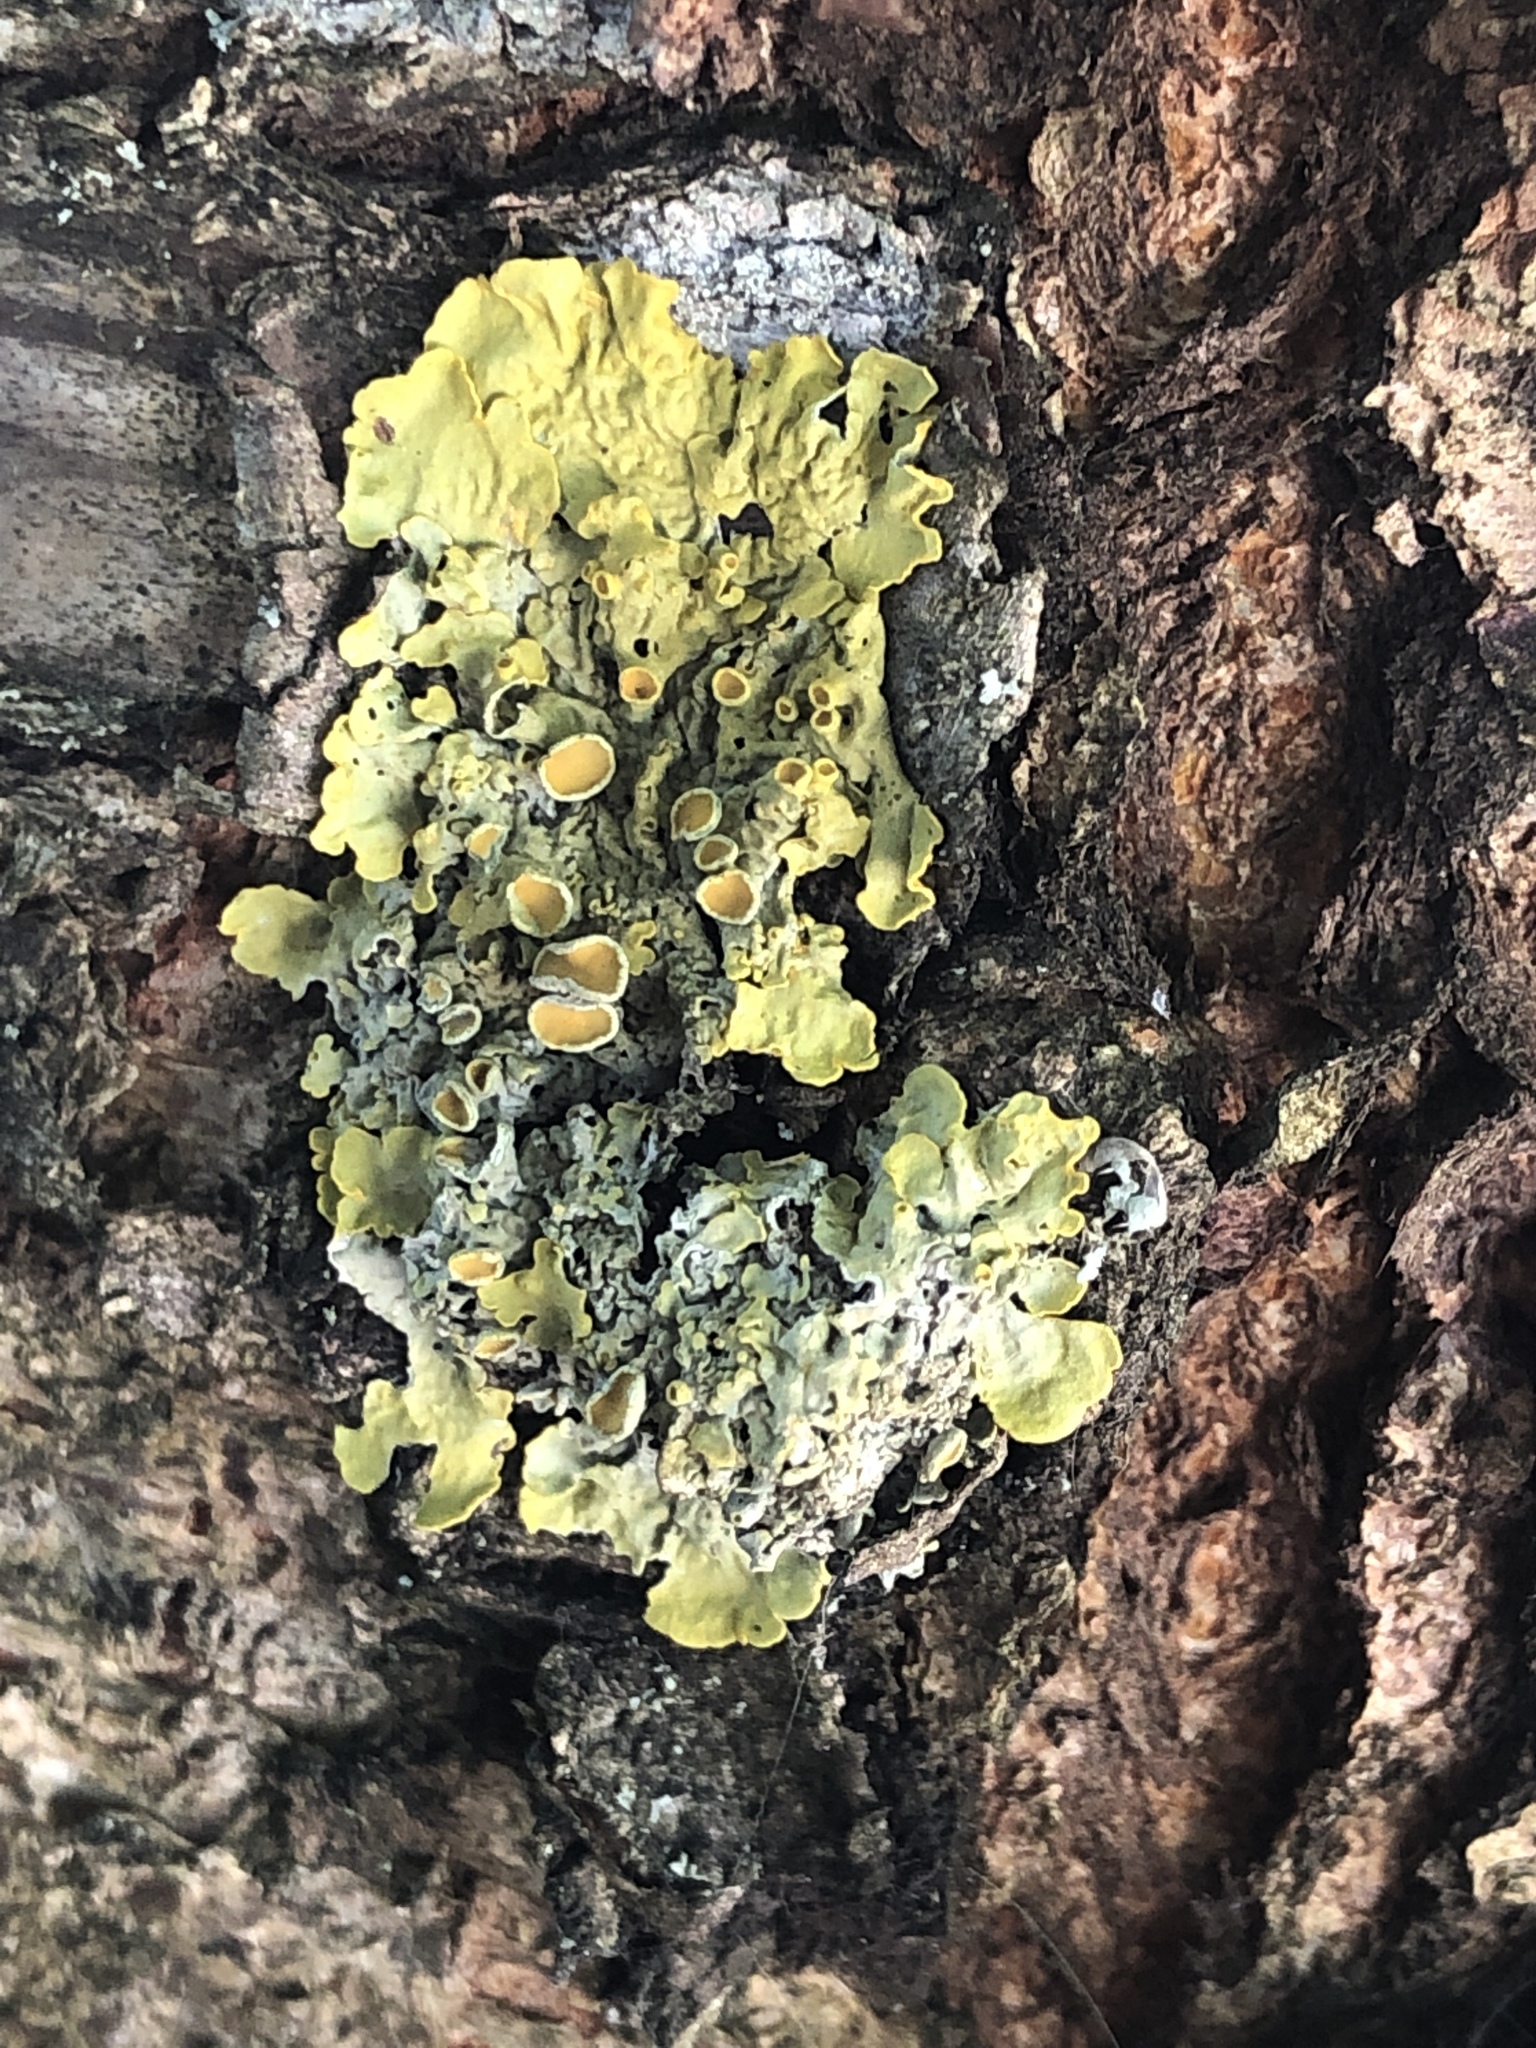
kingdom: Fungi
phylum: Ascomycota
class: Lecanoromycetes
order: Teloschistales
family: Teloschistaceae
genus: Xanthoria
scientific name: Xanthoria parietina
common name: Common orange lichen
